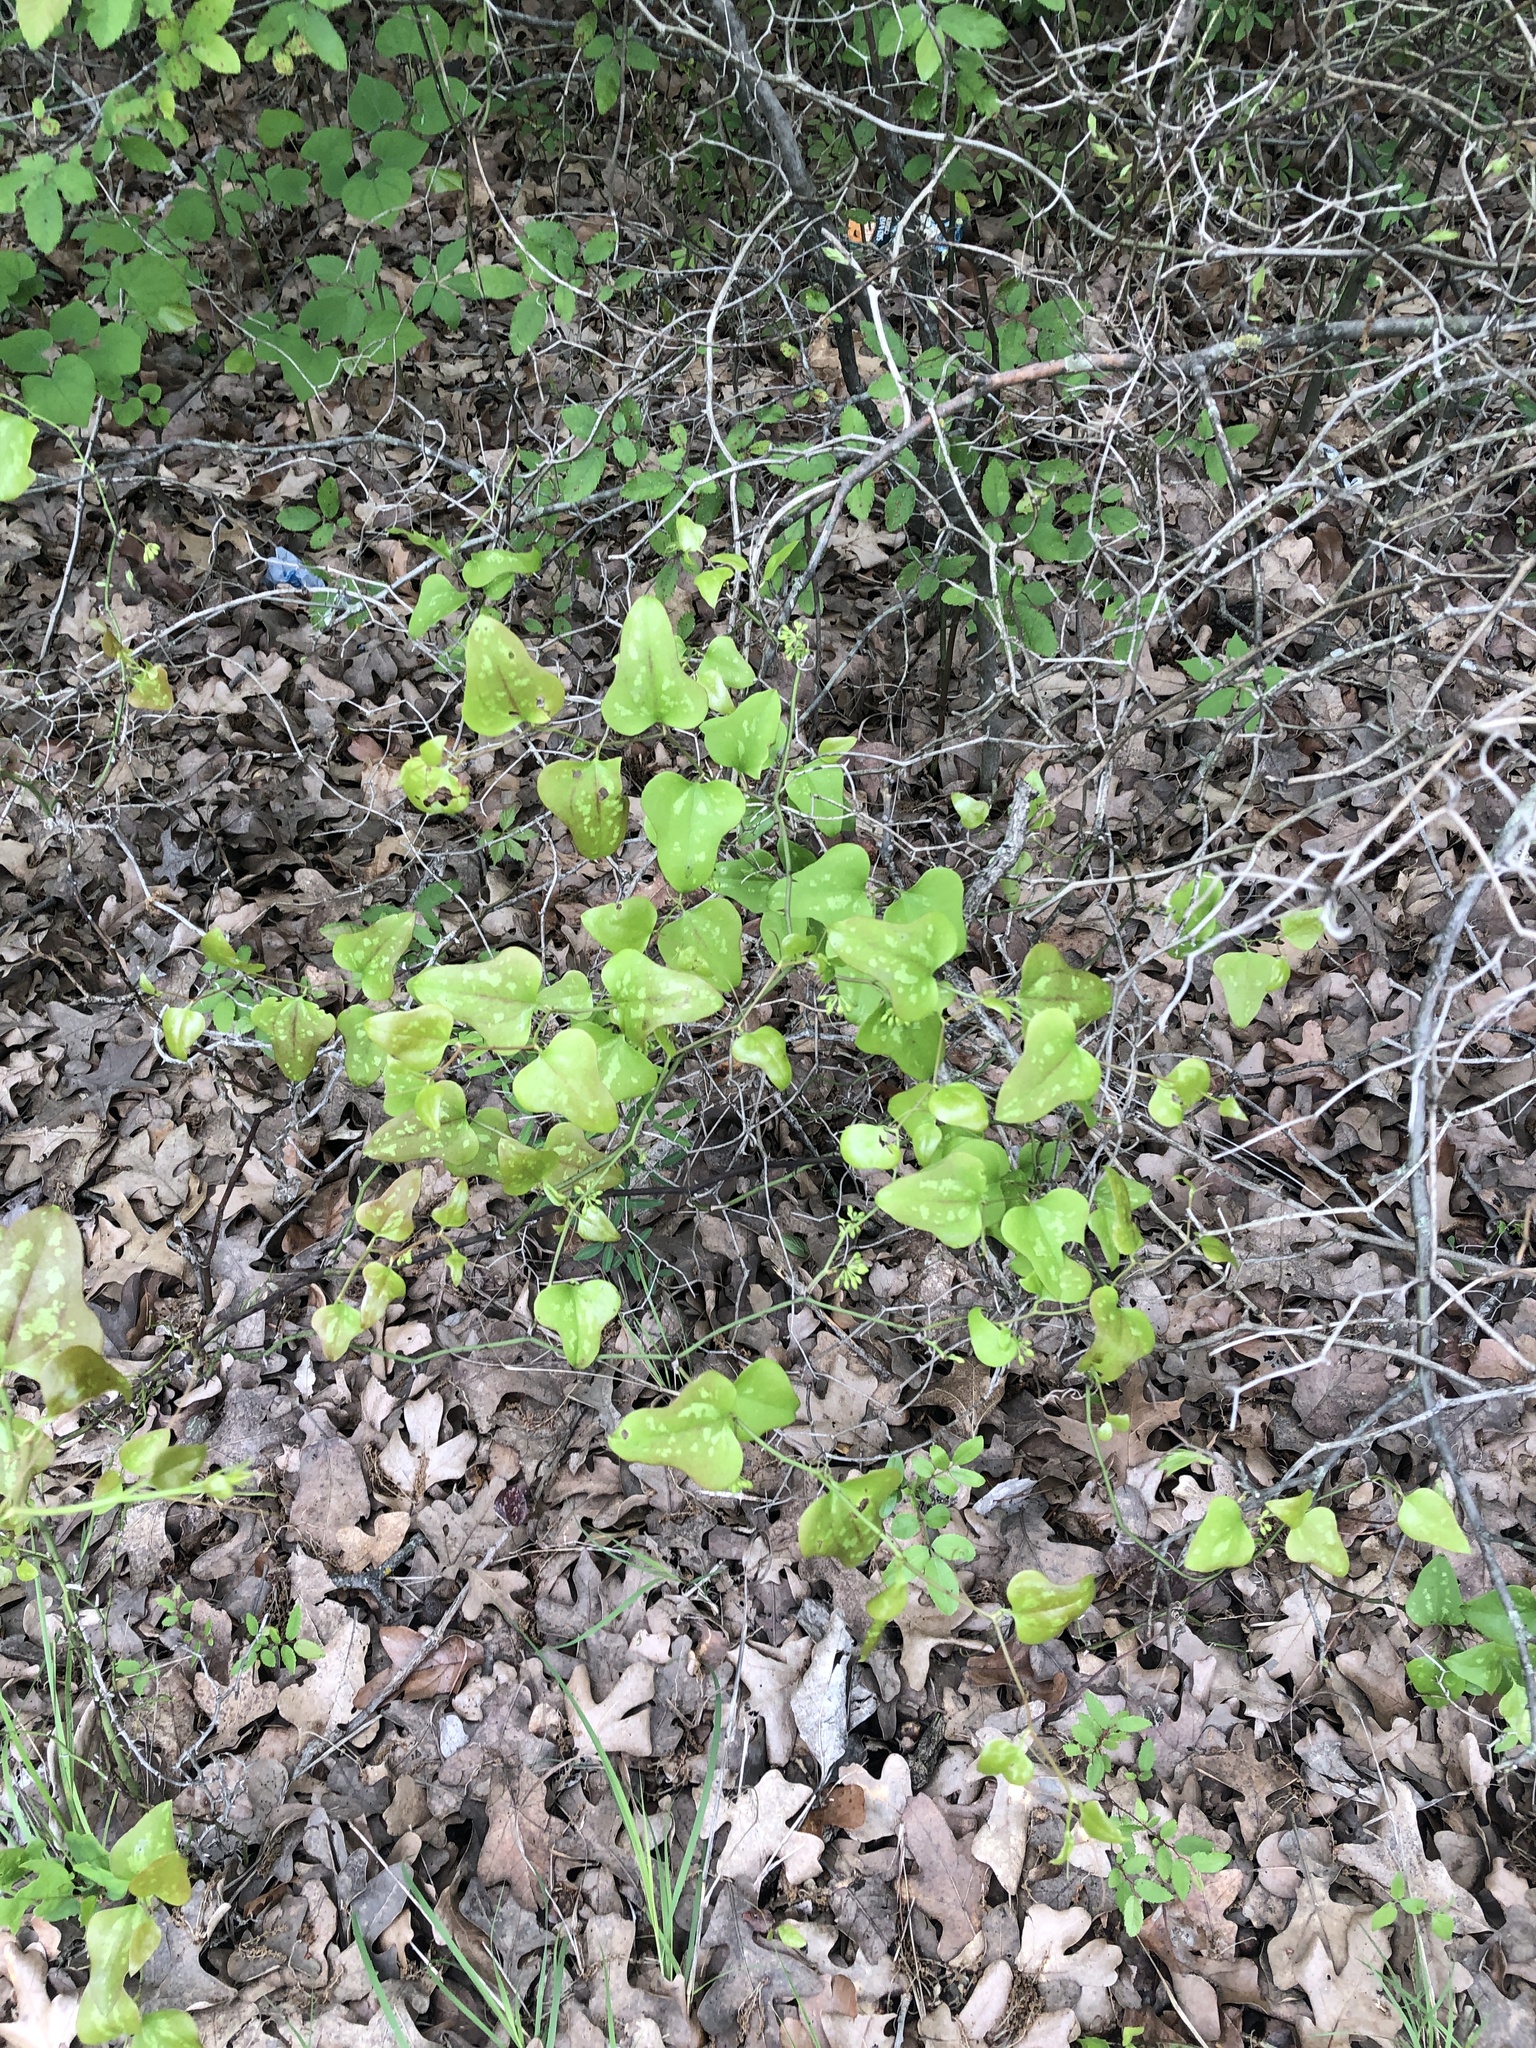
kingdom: Plantae
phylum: Tracheophyta
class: Liliopsida
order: Liliales
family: Smilacaceae
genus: Smilax
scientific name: Smilax bona-nox
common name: Catbrier
